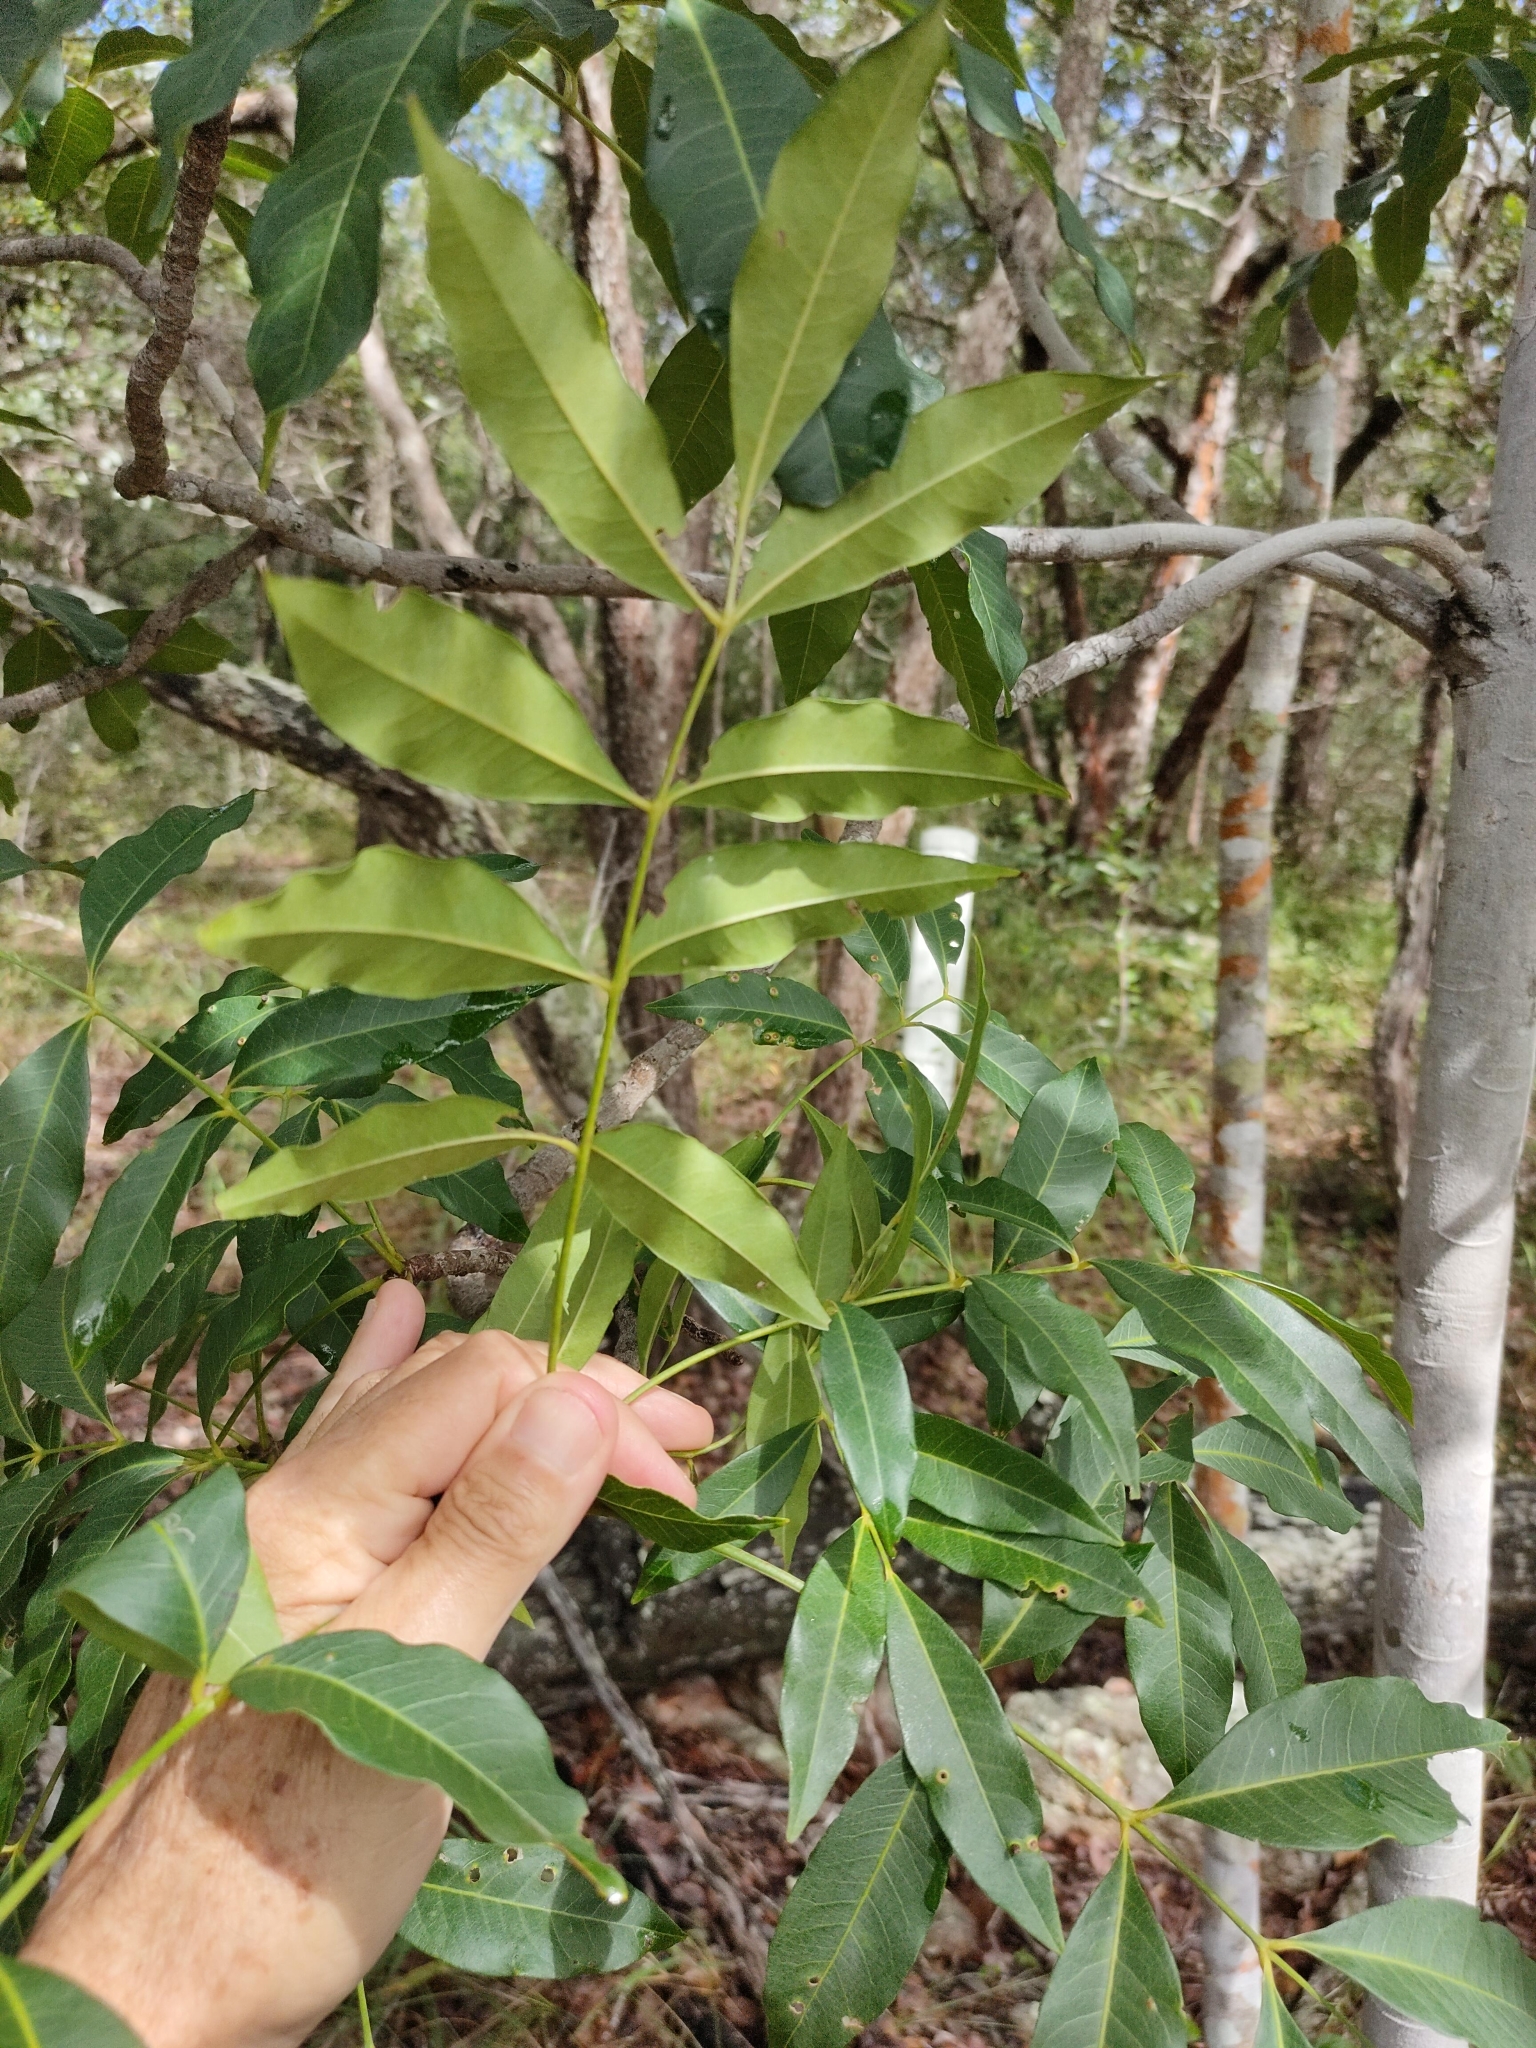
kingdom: Plantae
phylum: Tracheophyta
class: Magnoliopsida
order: Sapindales
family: Rutaceae
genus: Flindersia
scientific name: Flindersia australis
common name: Australian-teak
